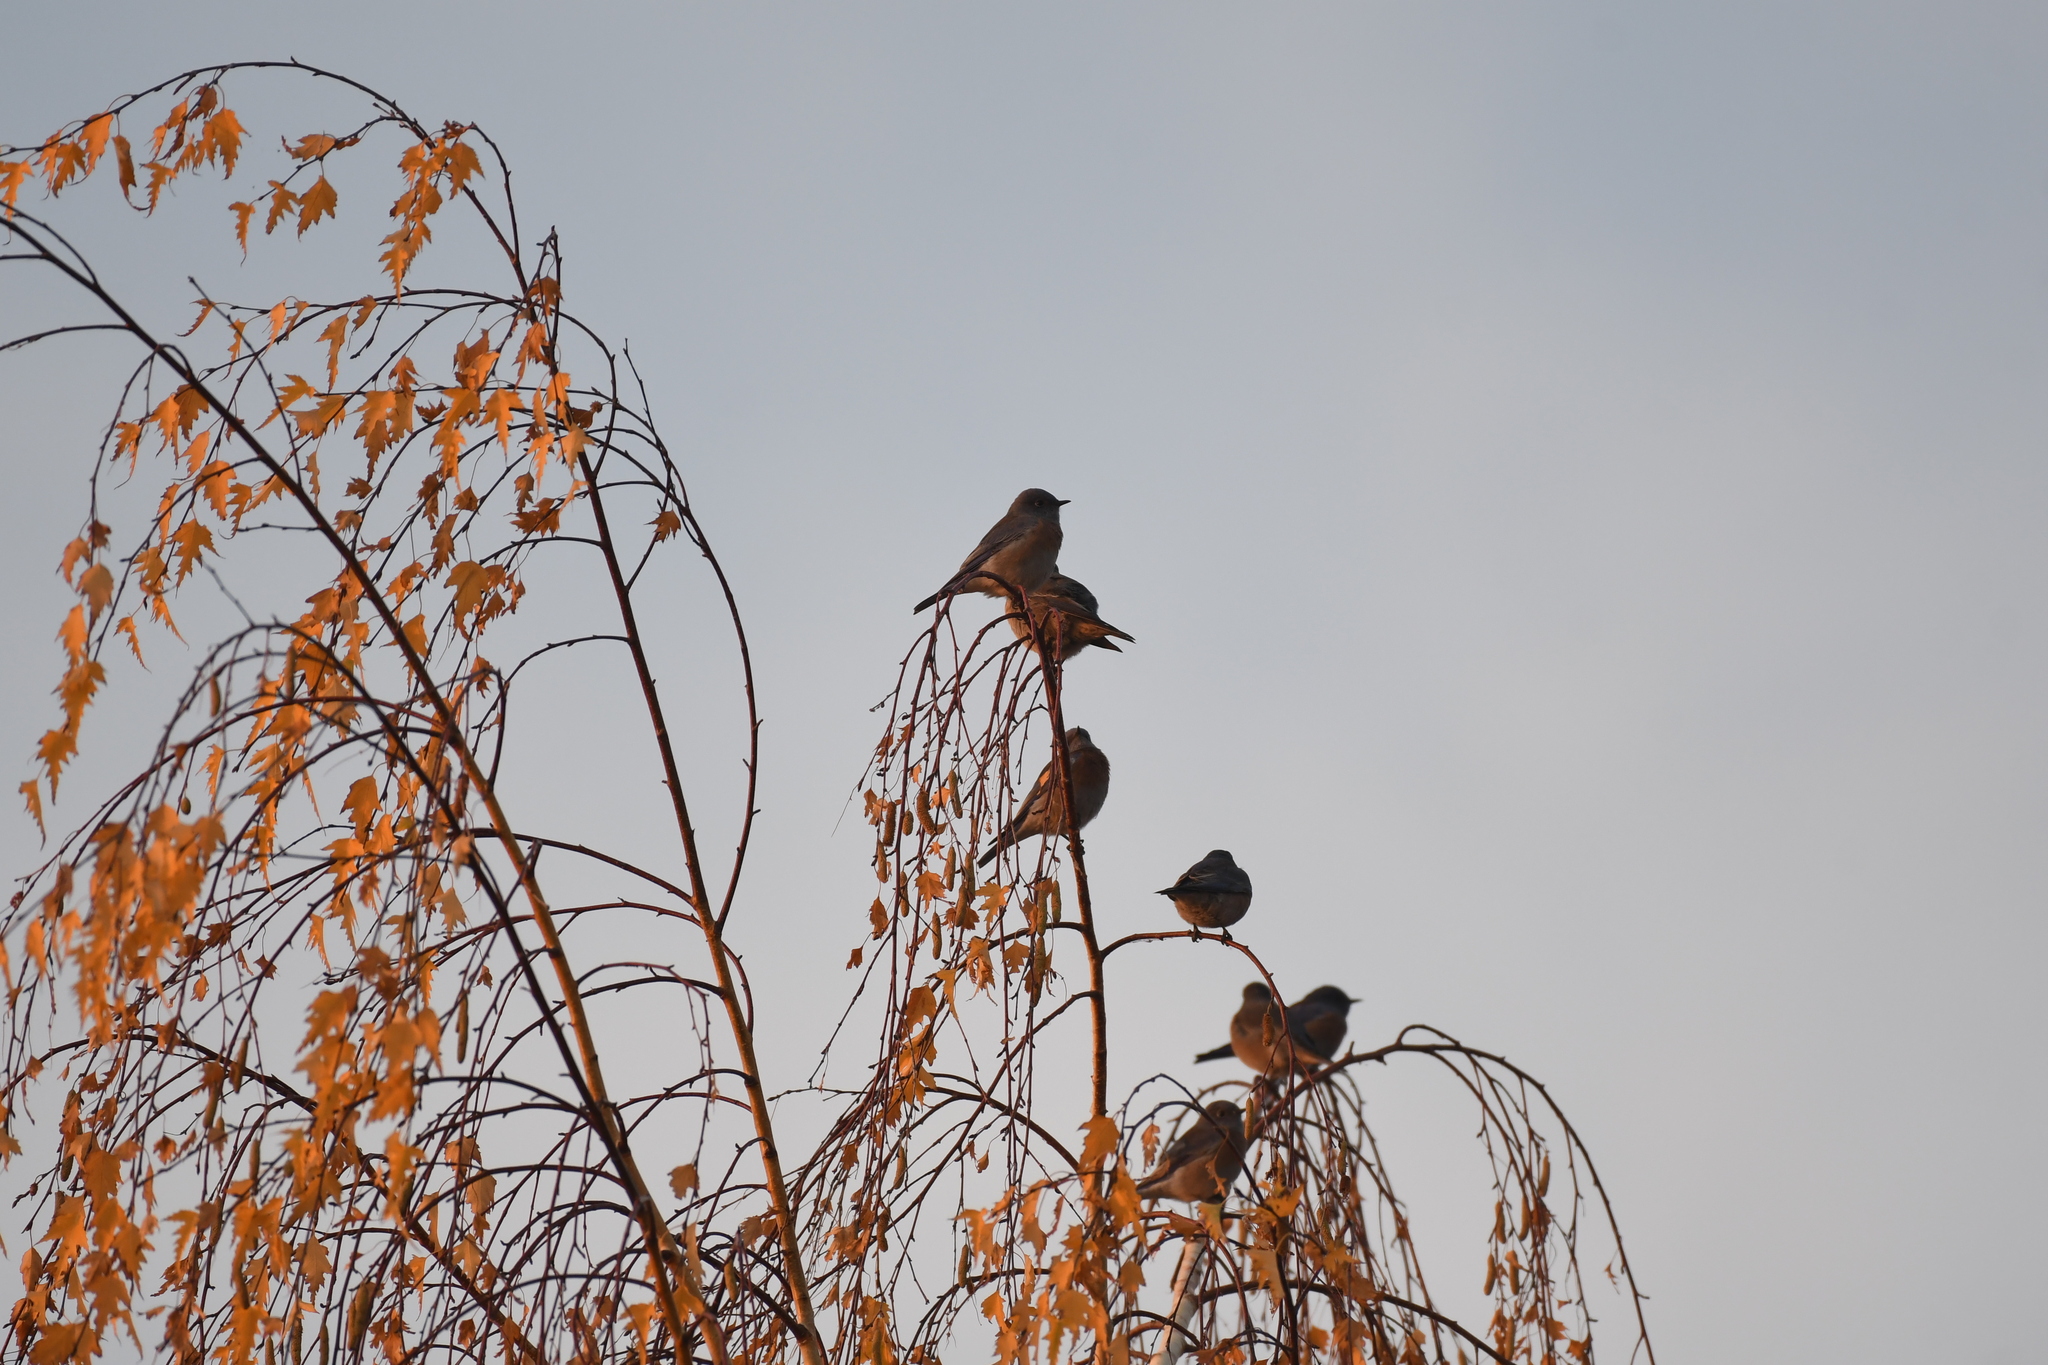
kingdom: Animalia
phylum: Chordata
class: Aves
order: Passeriformes
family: Turdidae
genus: Sialia
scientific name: Sialia mexicana
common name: Western bluebird
